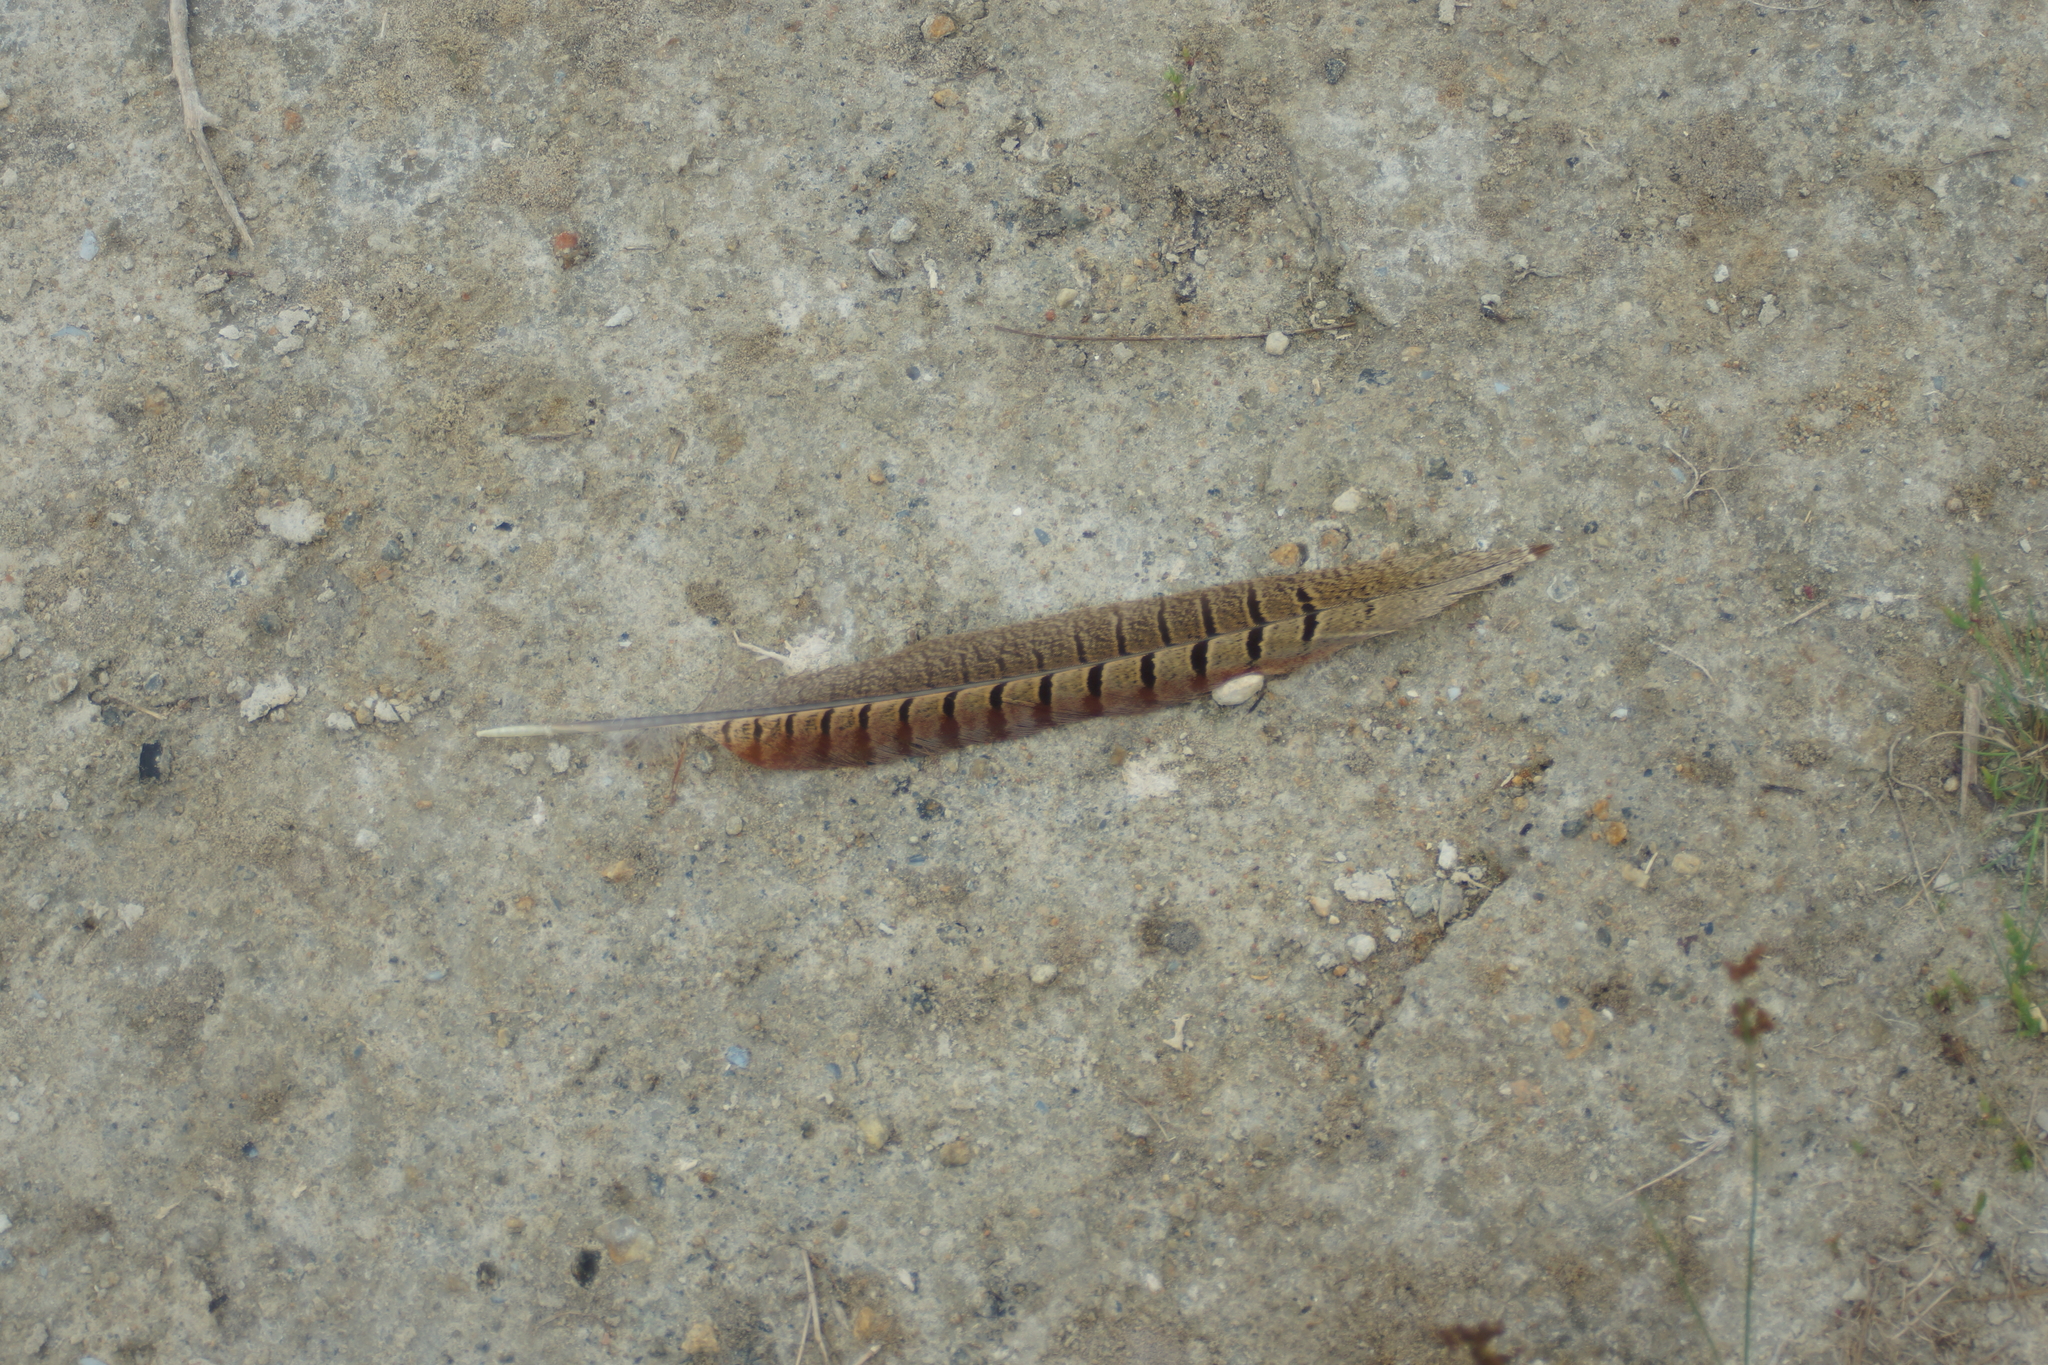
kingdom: Animalia
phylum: Chordata
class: Aves
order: Galliformes
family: Phasianidae
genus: Phasianus
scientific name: Phasianus colchicus
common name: Common pheasant
